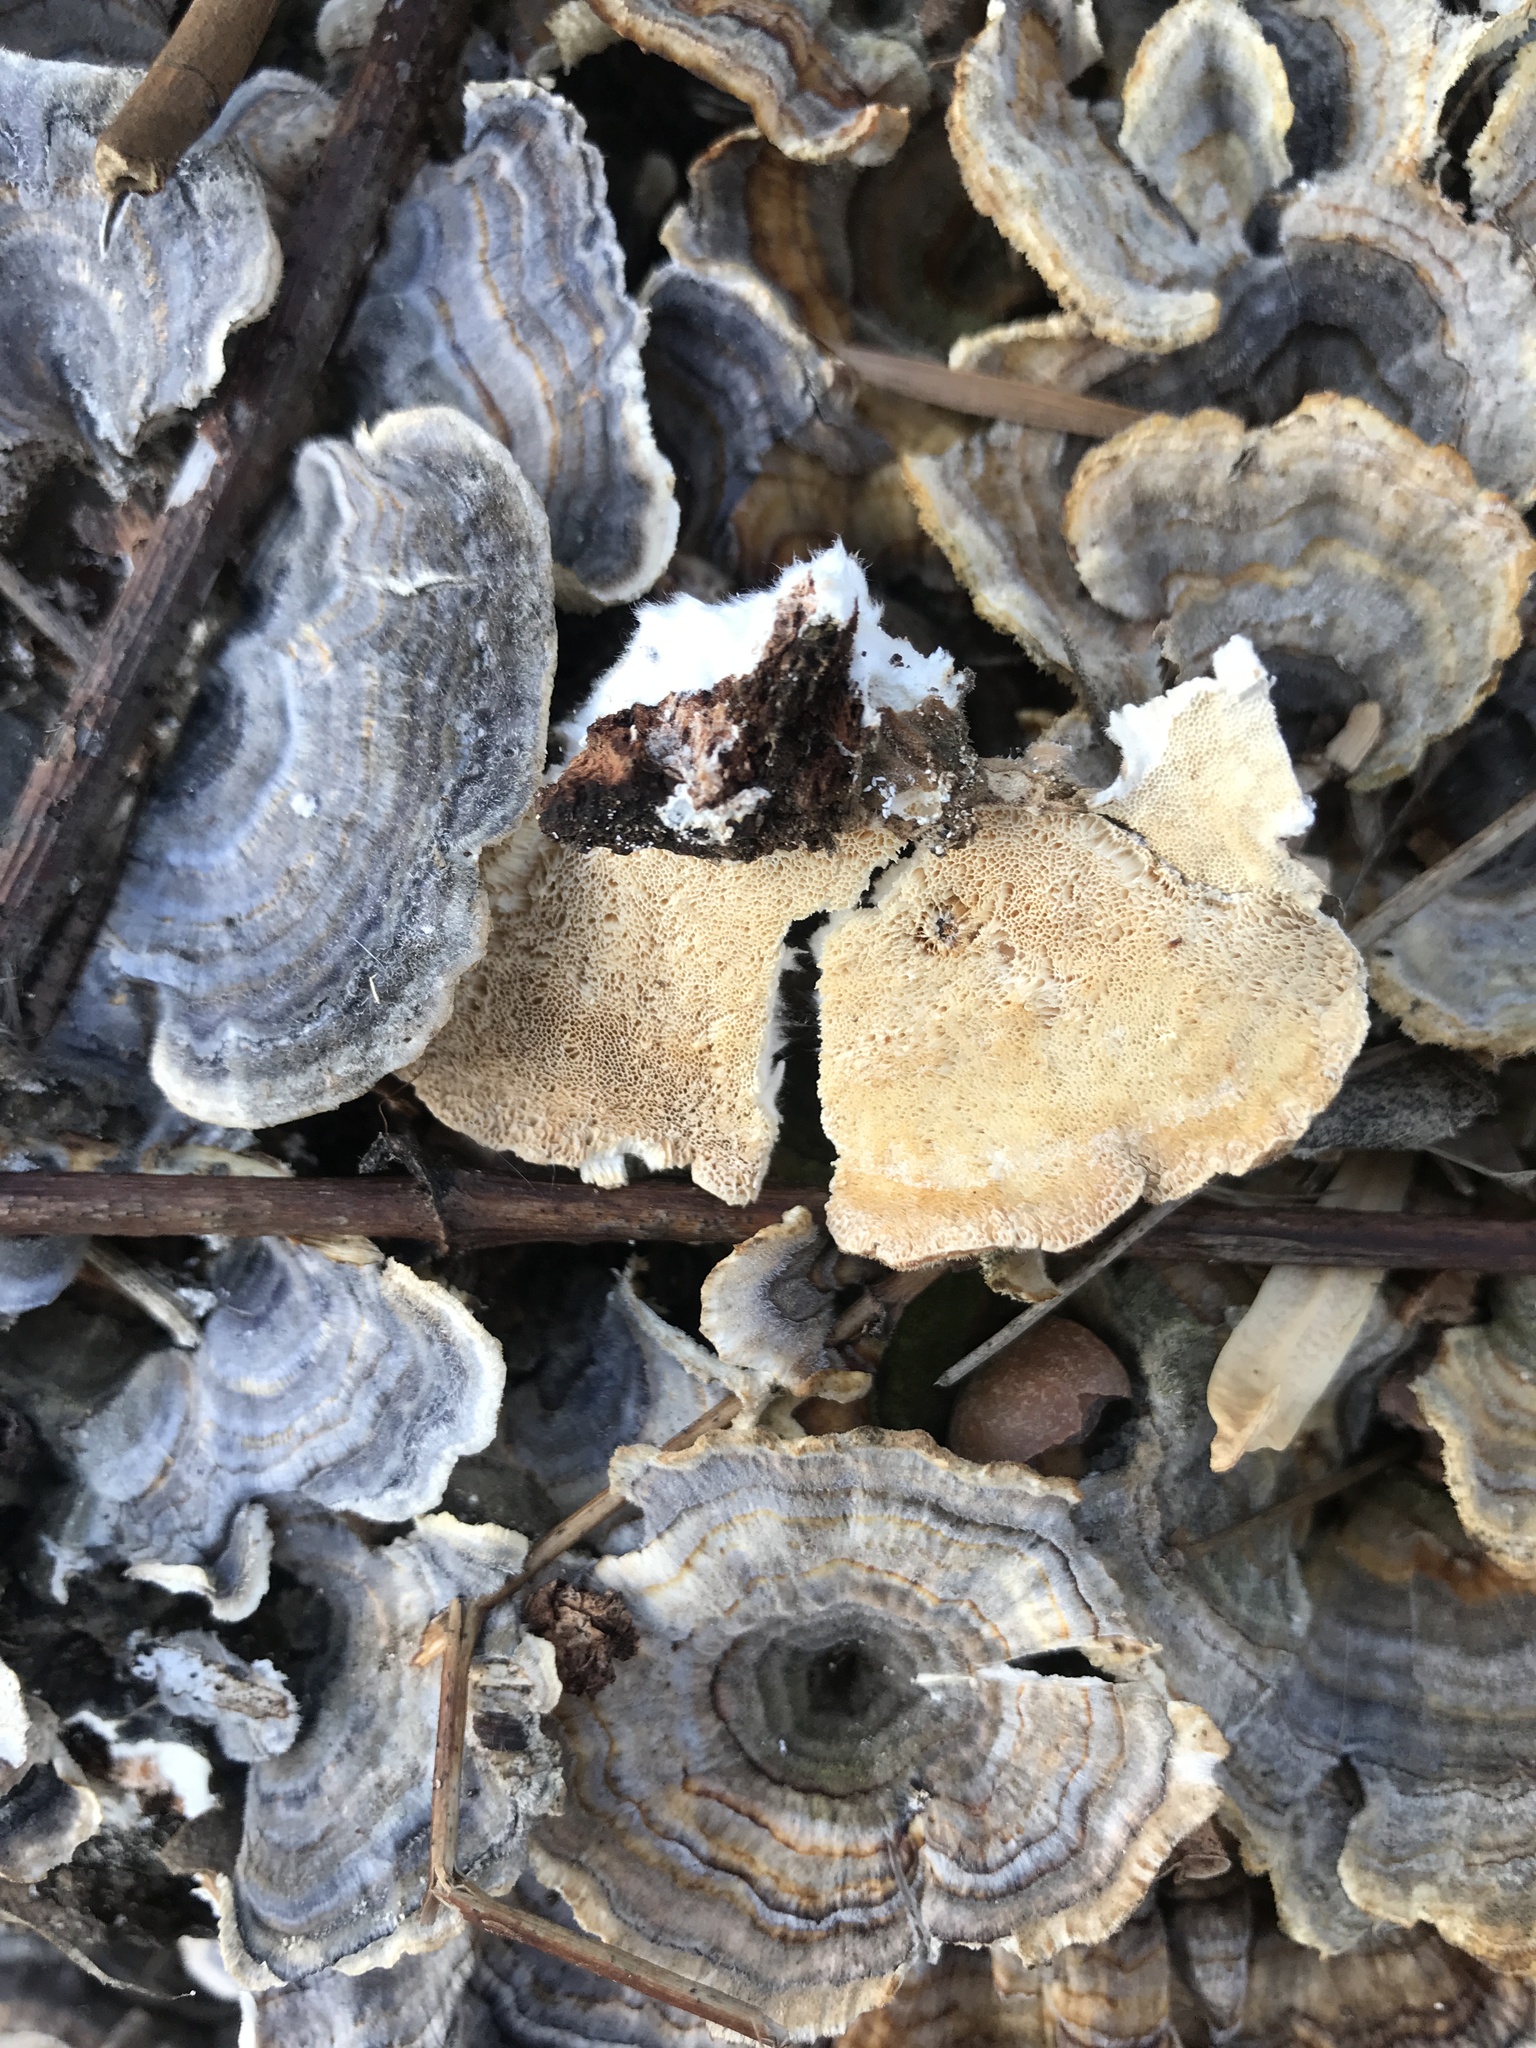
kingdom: Fungi
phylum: Basidiomycota
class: Agaricomycetes
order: Polyporales
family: Polyporaceae
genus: Trametes
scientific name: Trametes versicolor
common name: Turkeytail
